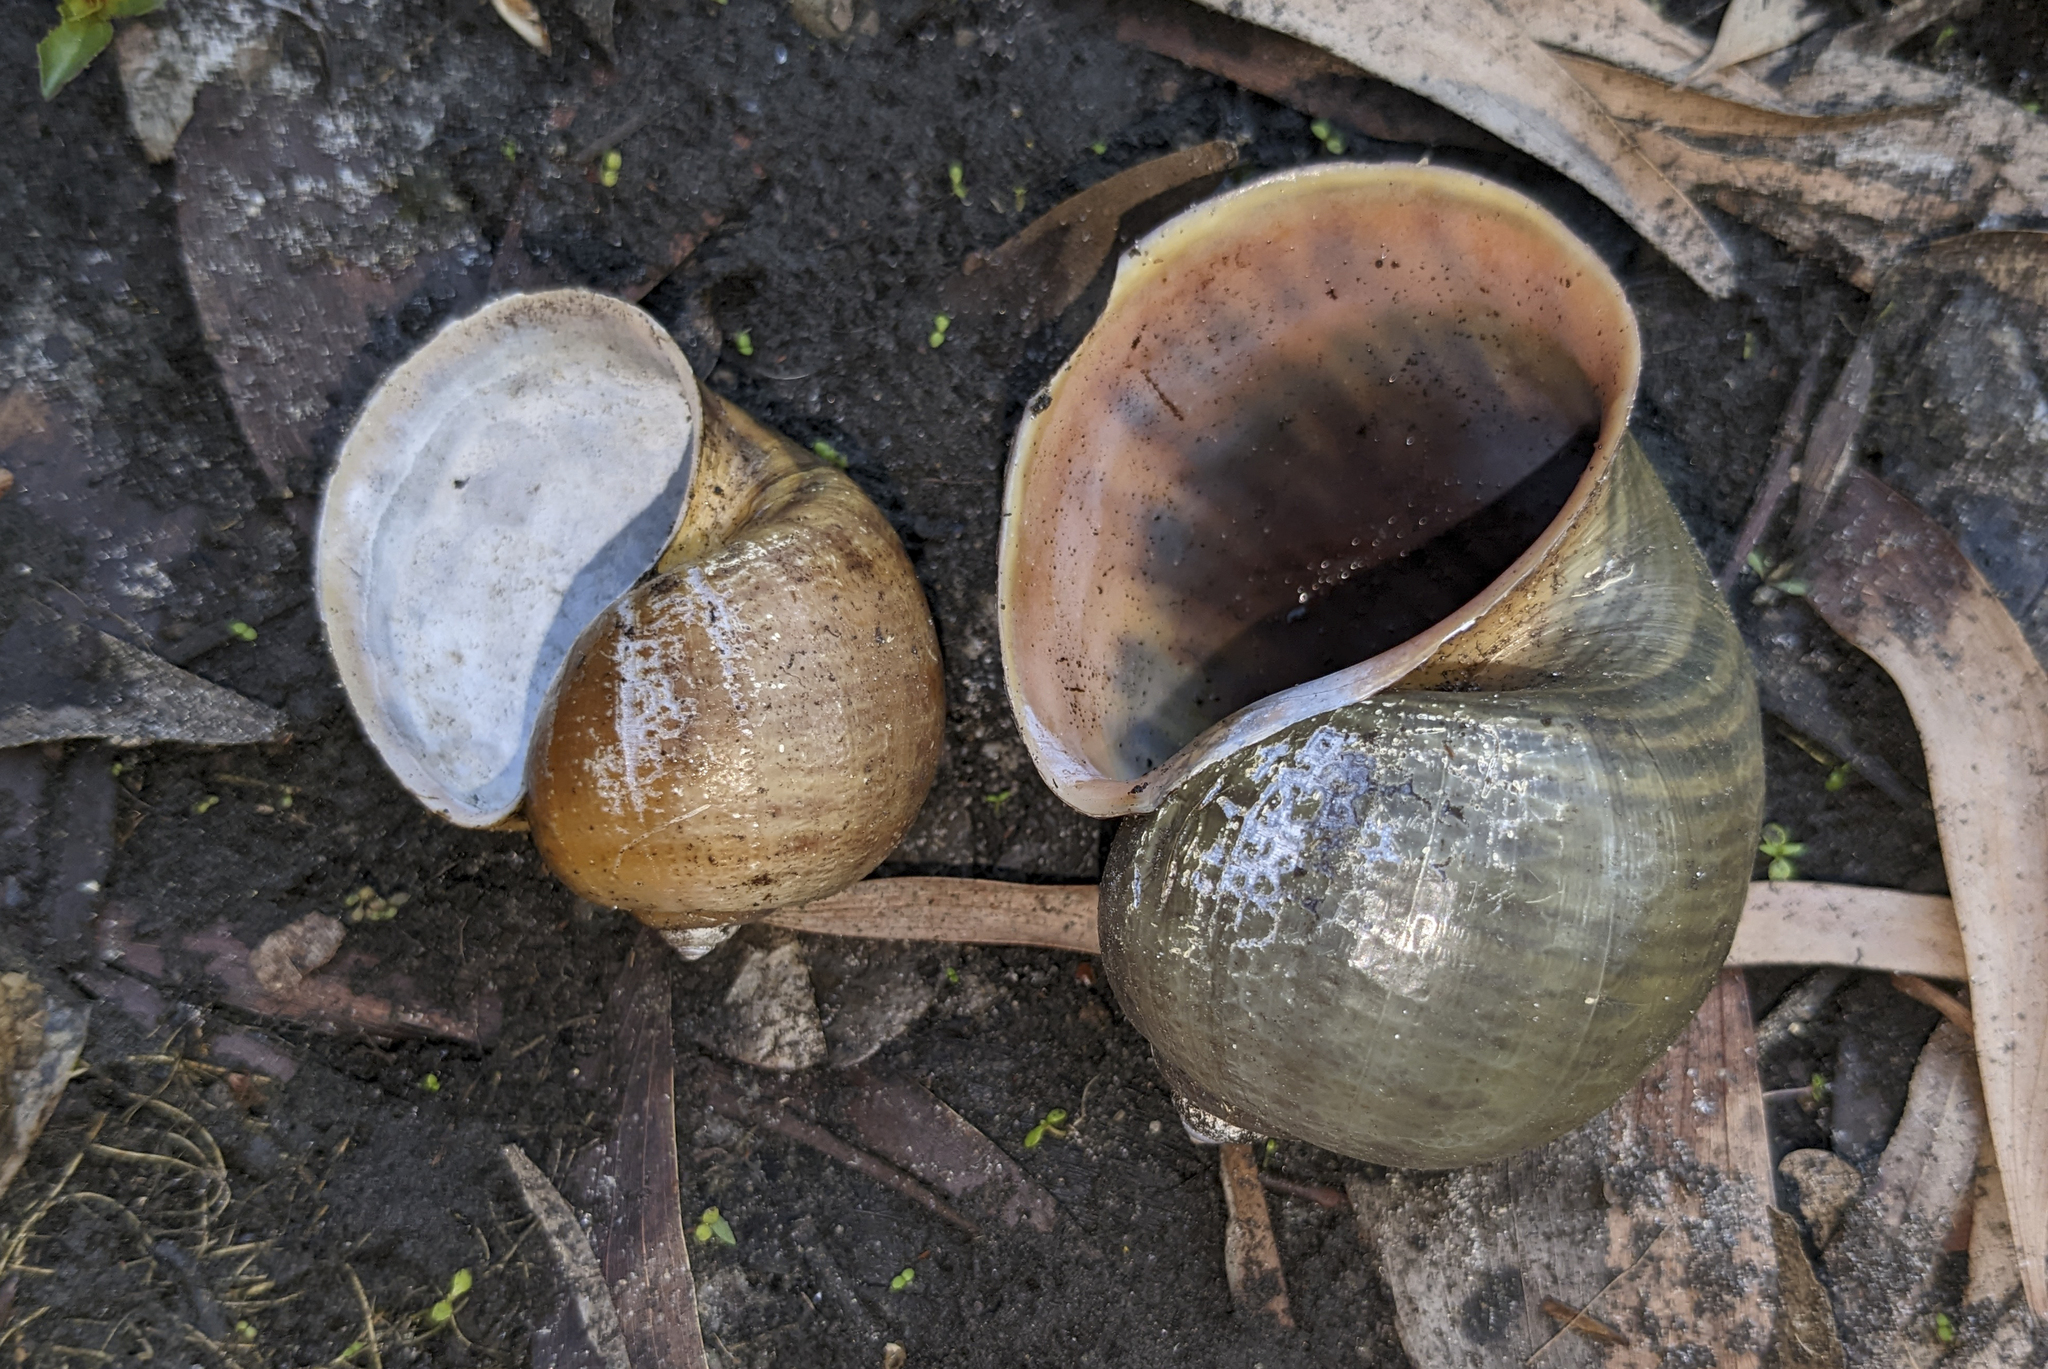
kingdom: Animalia
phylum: Mollusca
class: Gastropoda
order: Architaenioglossa
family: Ampullariidae
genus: Pomacea
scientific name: Pomacea maculata
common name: Giant applesnail
